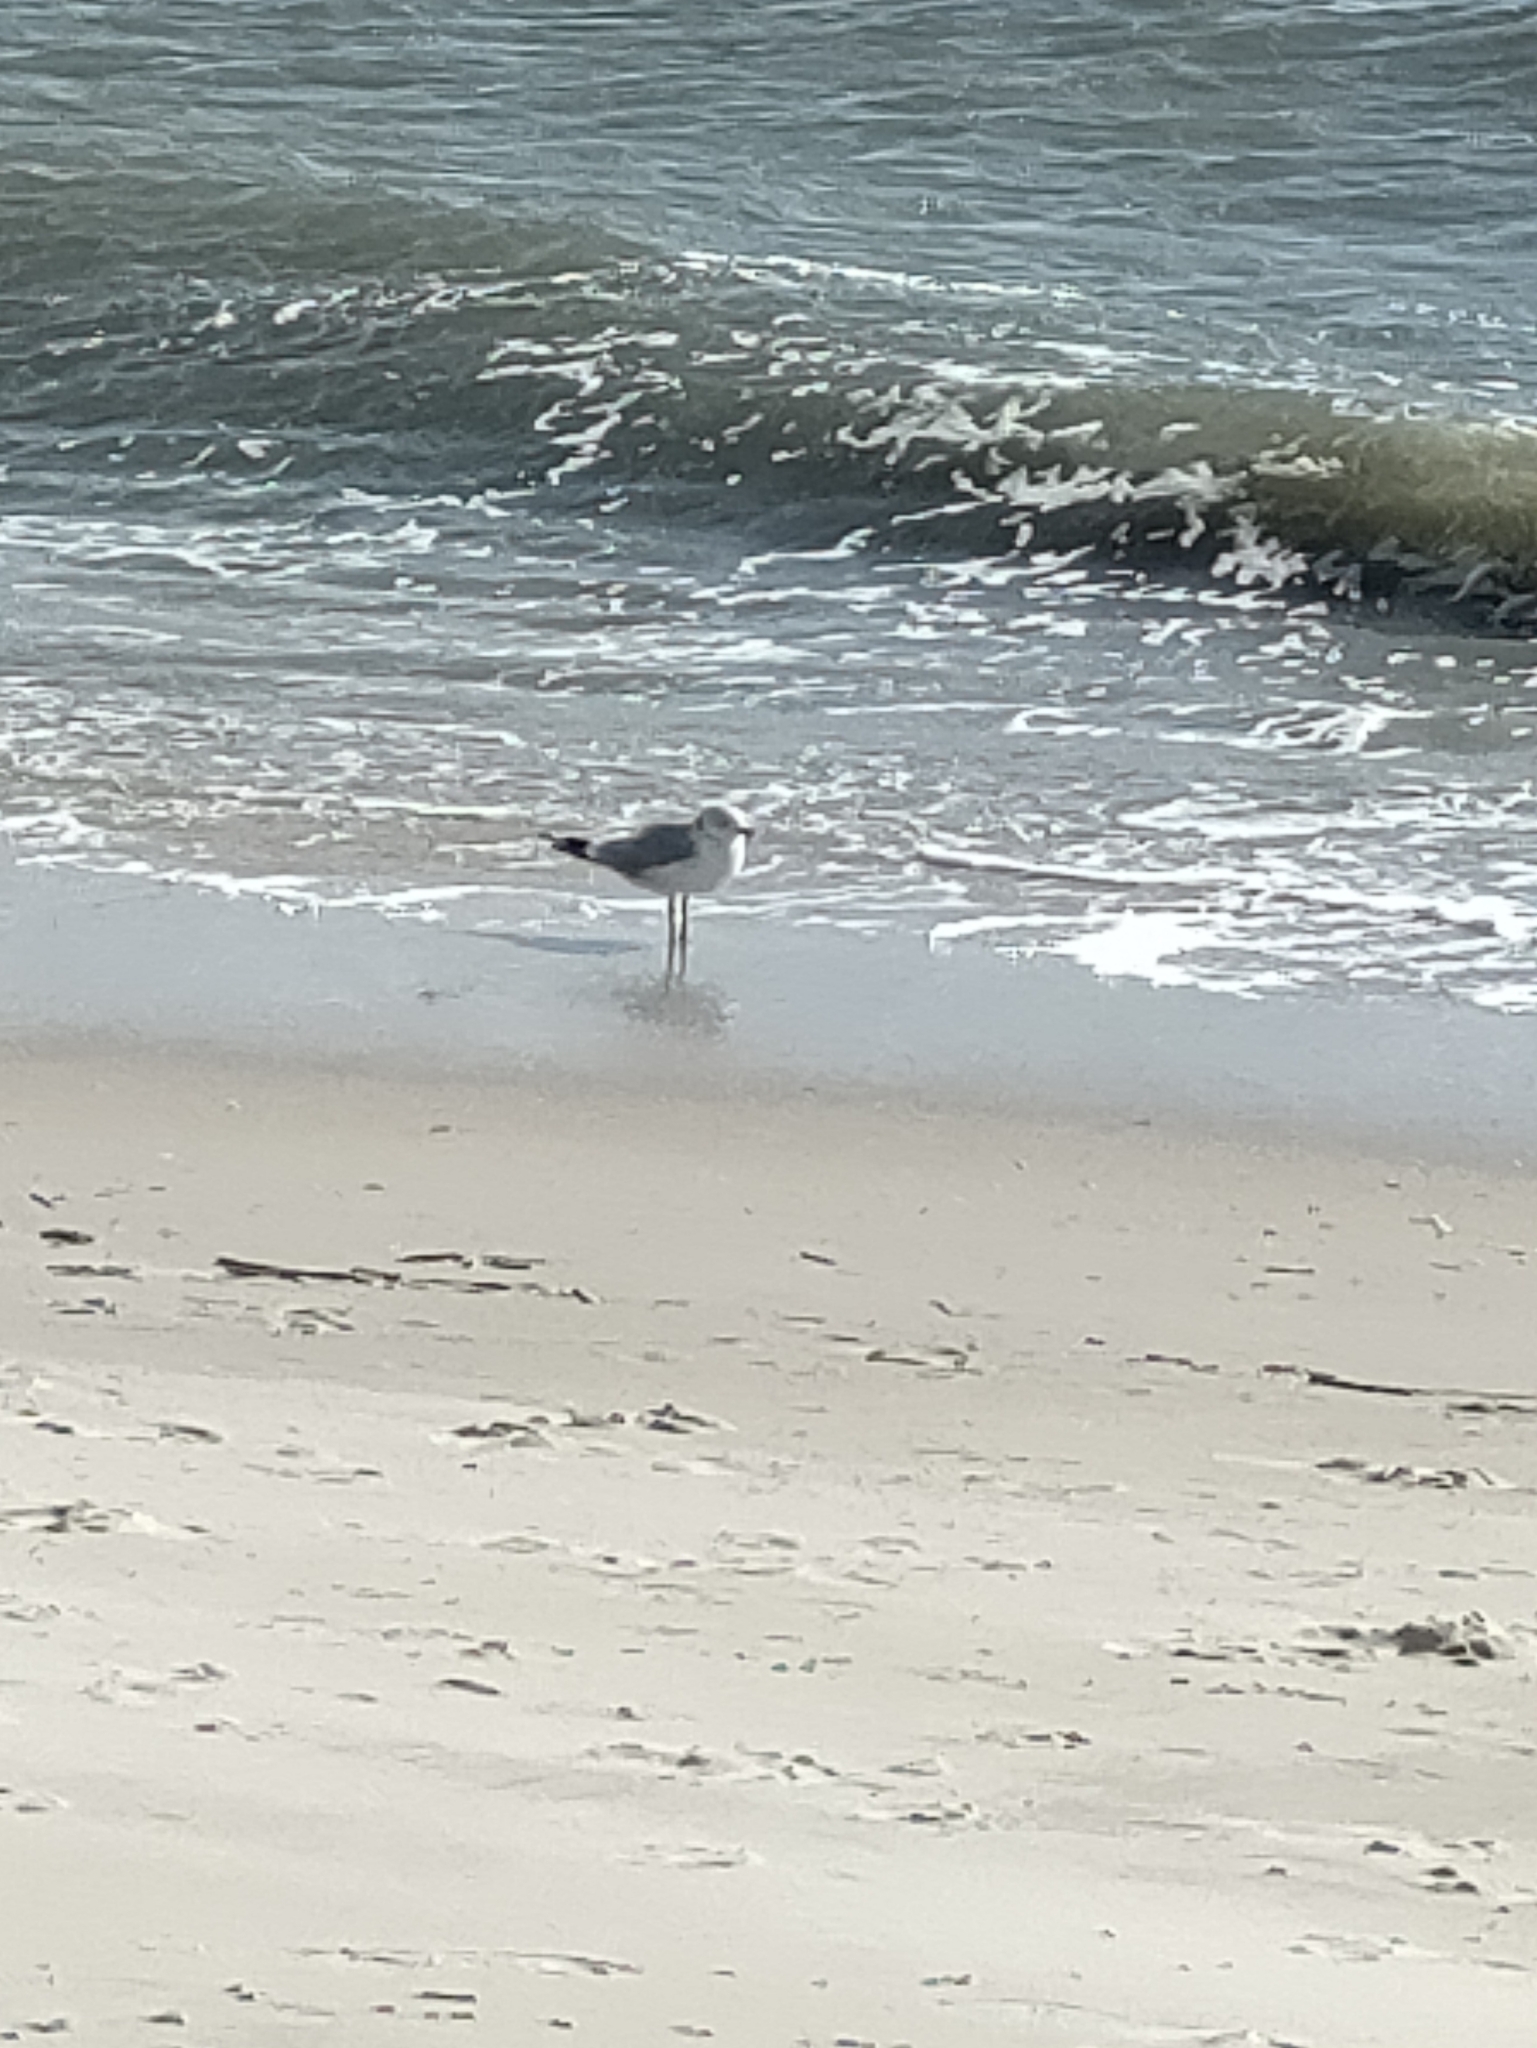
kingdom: Animalia
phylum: Chordata
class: Aves
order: Charadriiformes
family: Laridae
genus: Larus
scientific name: Larus delawarensis
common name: Ring-billed gull
